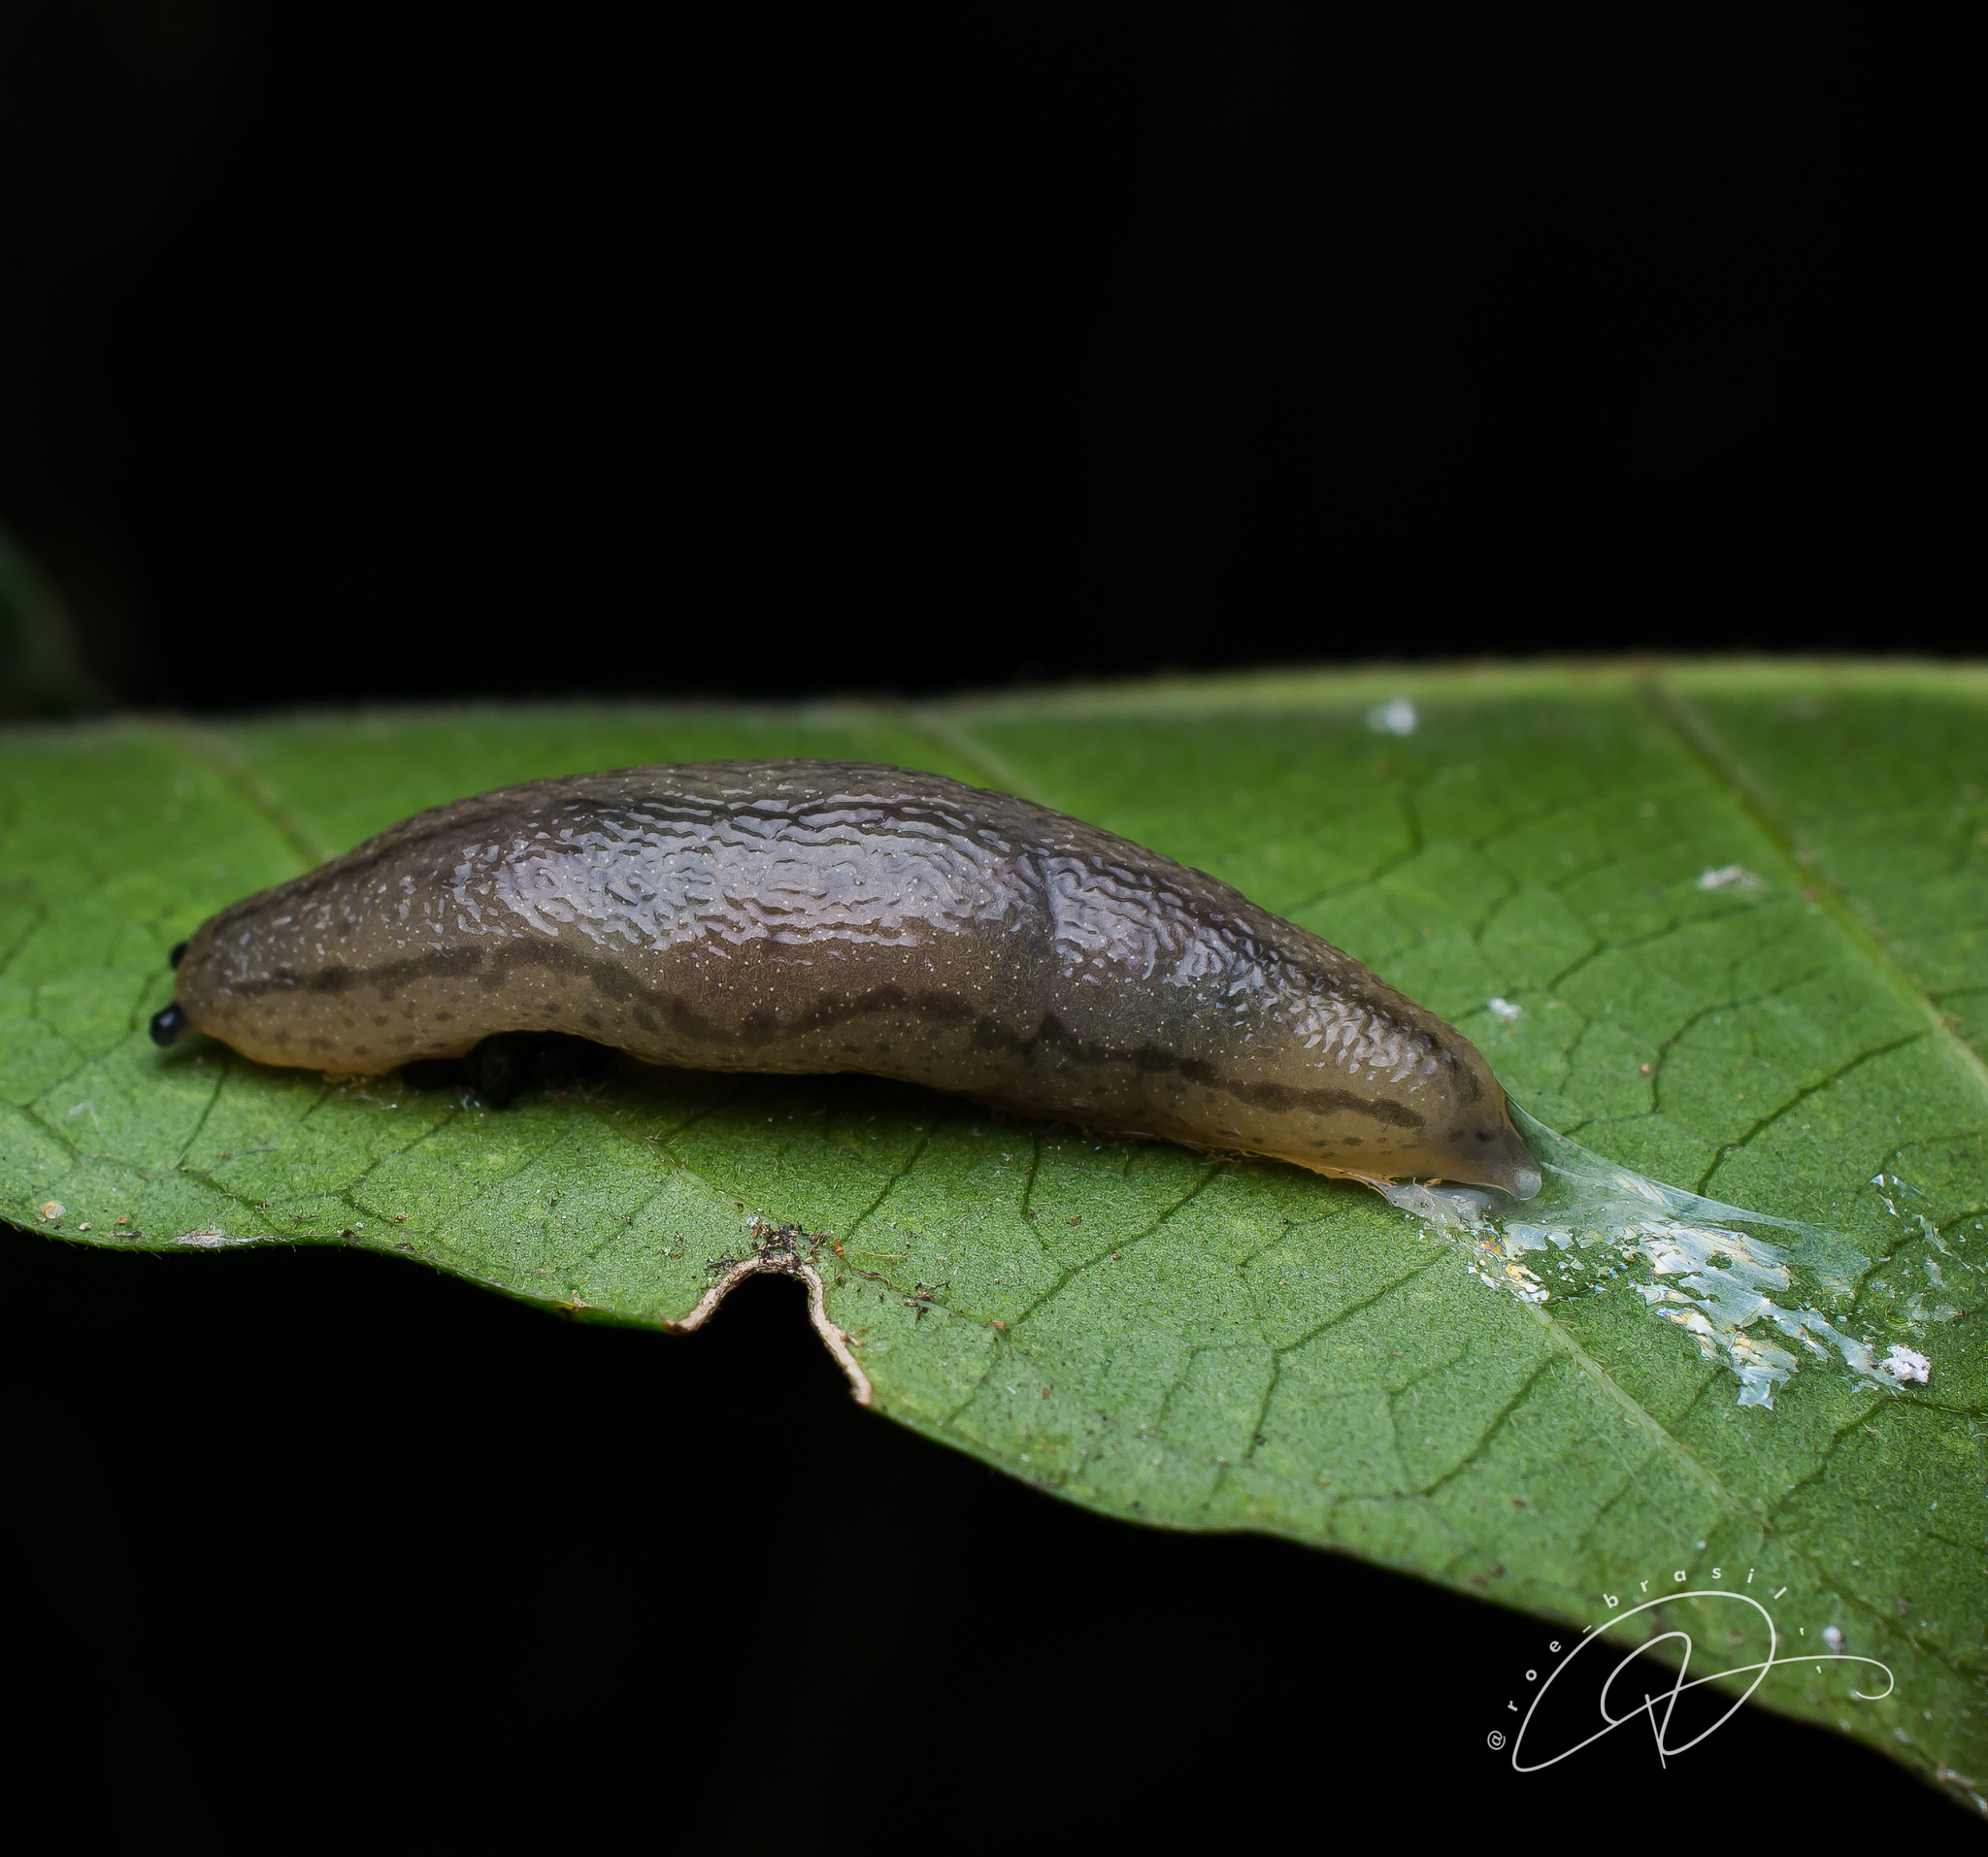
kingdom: Animalia
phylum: Mollusca
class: Gastropoda
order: Stylommatophora
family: Philomycidae
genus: Meghimatium
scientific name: Meghimatium pictum
